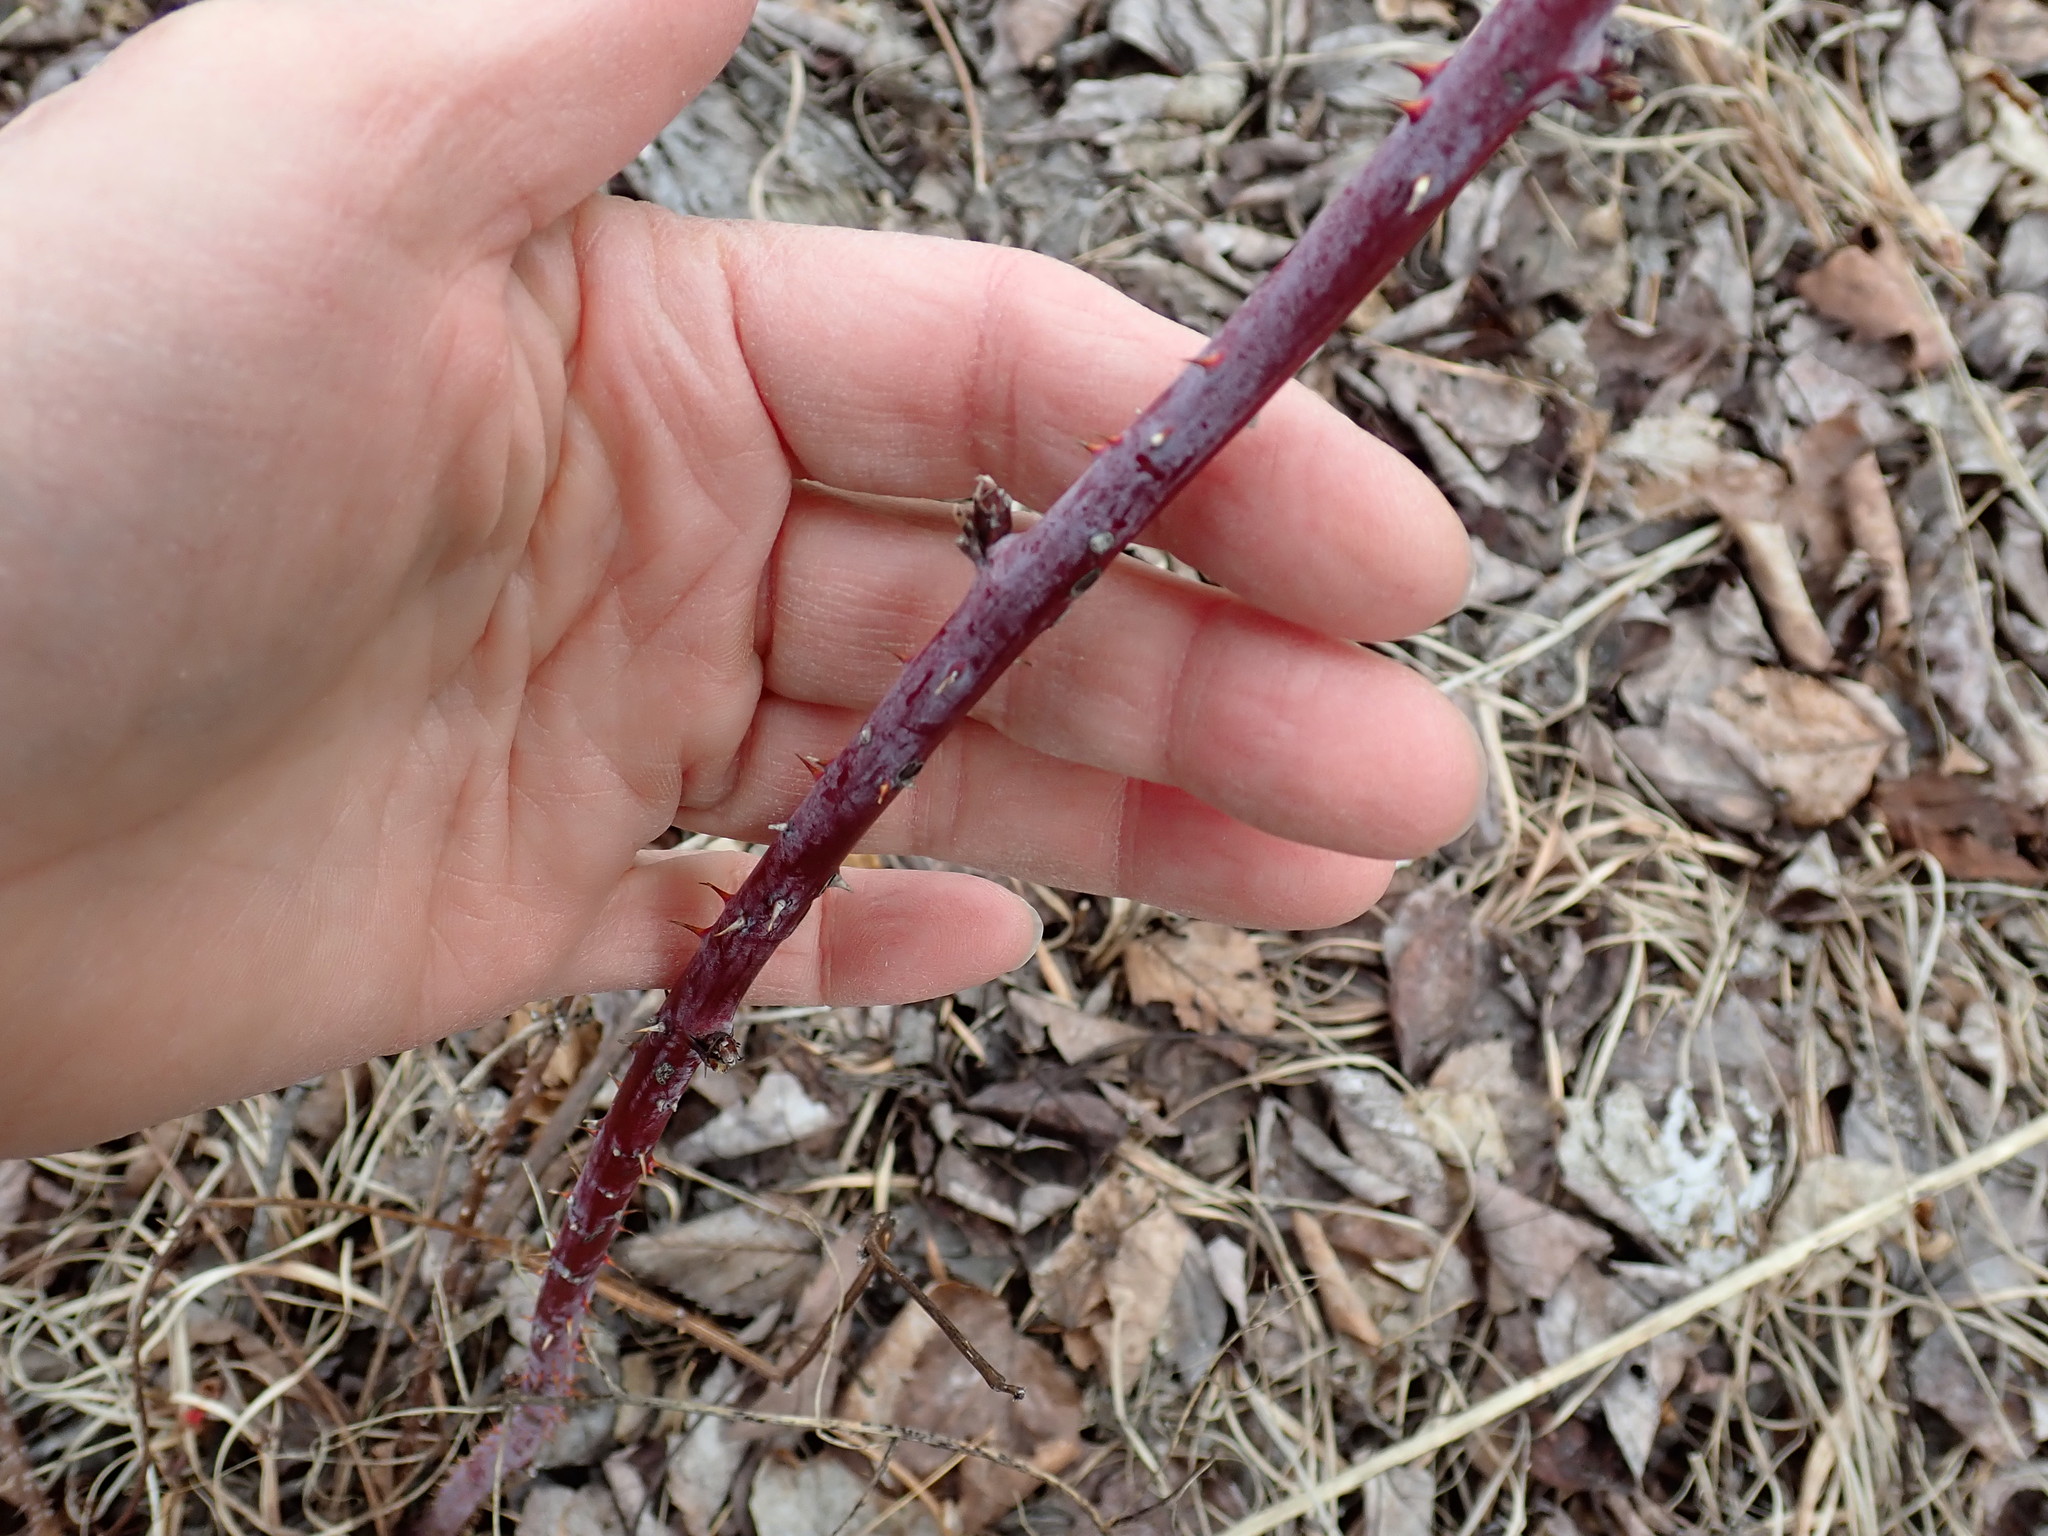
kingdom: Plantae
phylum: Tracheophyta
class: Magnoliopsida
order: Rosales
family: Rosaceae
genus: Rubus
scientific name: Rubus occidentalis
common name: Black raspberry
